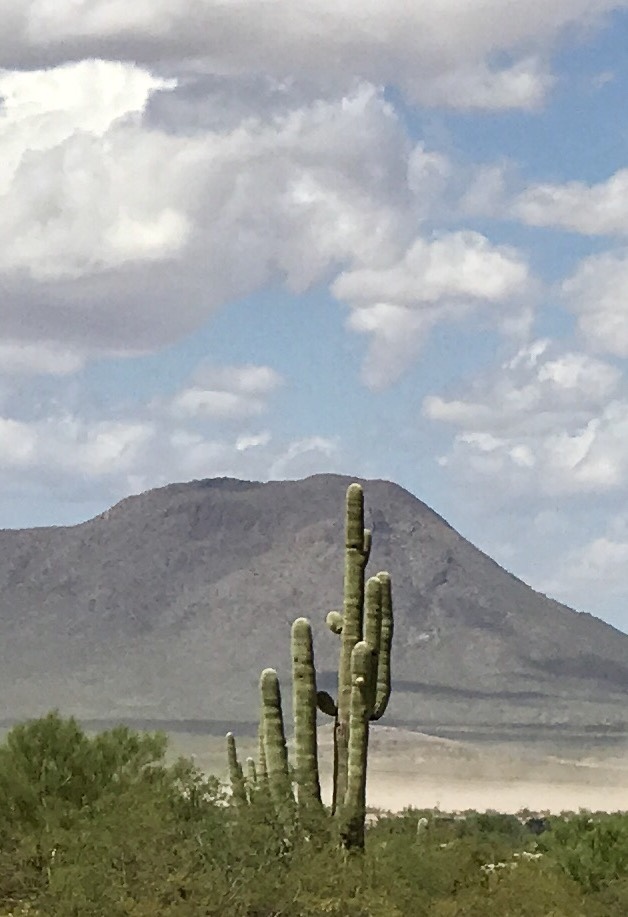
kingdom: Plantae
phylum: Tracheophyta
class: Magnoliopsida
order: Caryophyllales
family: Cactaceae
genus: Carnegiea
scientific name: Carnegiea gigantea
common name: Saguaro
